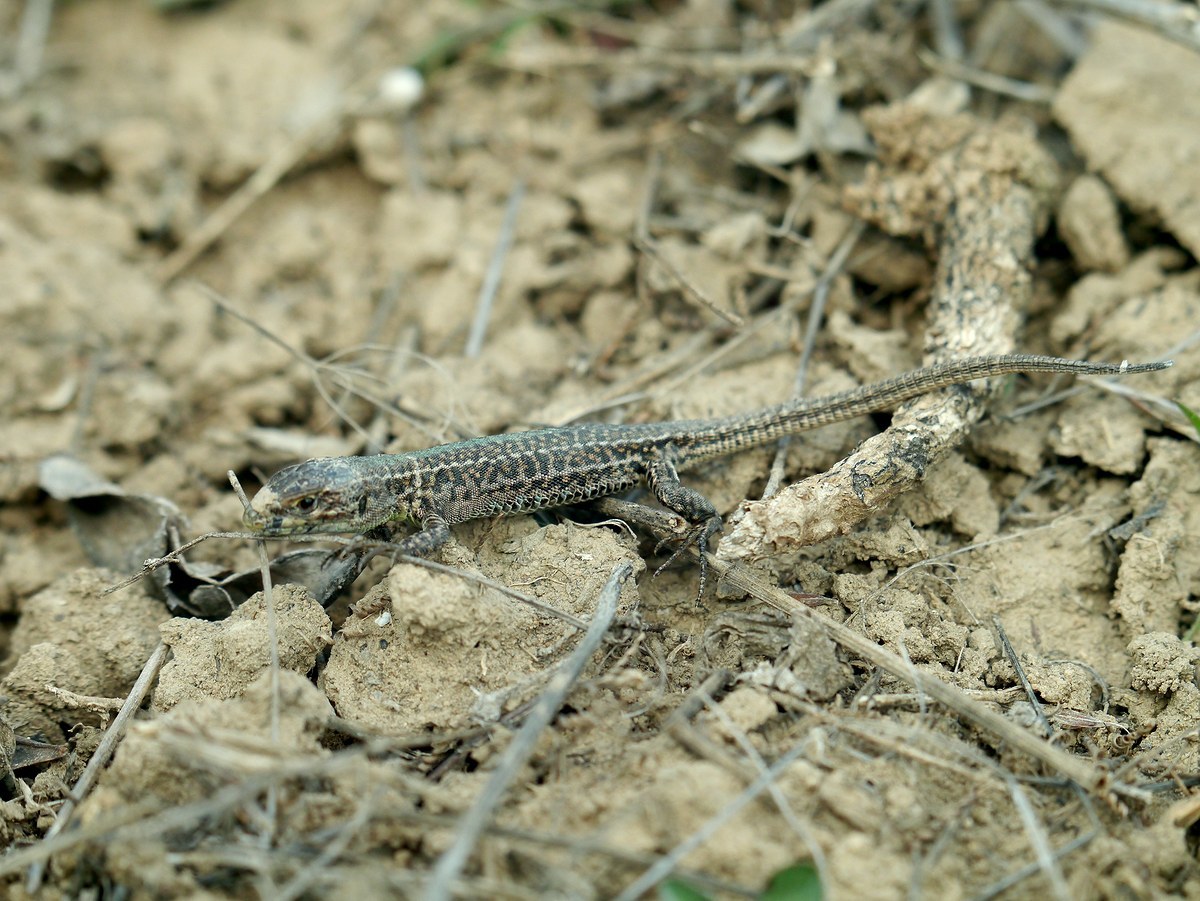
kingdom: Animalia
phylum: Chordata
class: Squamata
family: Lacertidae
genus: Podarcis
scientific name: Podarcis tauricus
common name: Balkan wall lizard
